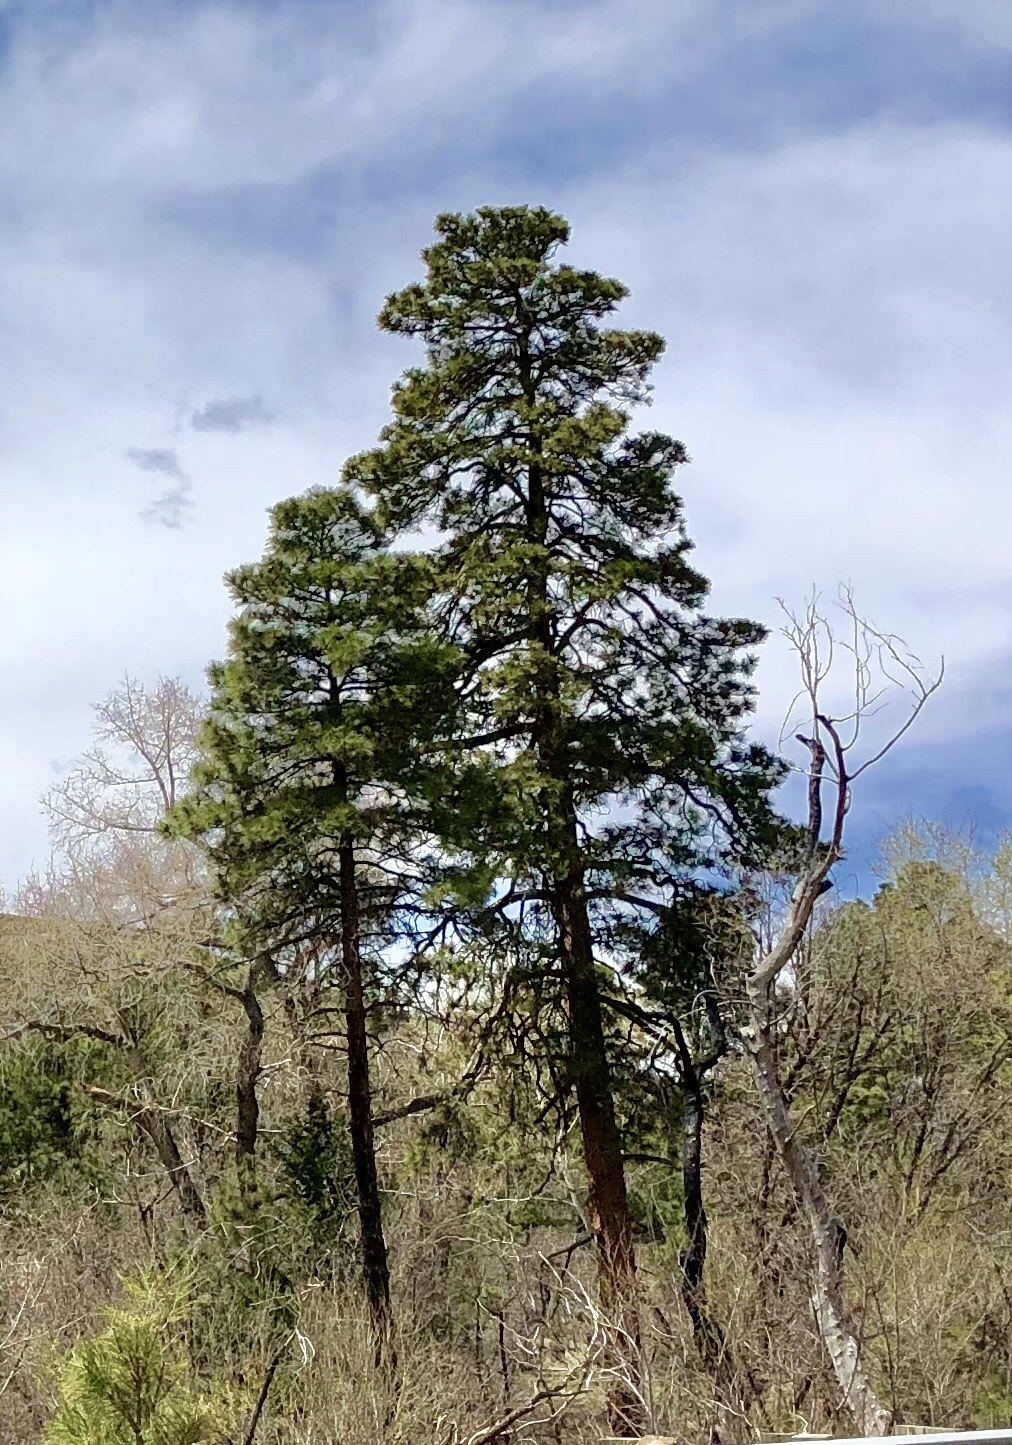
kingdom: Plantae
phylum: Tracheophyta
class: Pinopsida
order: Pinales
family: Pinaceae
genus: Pinus
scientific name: Pinus ponderosa
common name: Western yellow-pine
